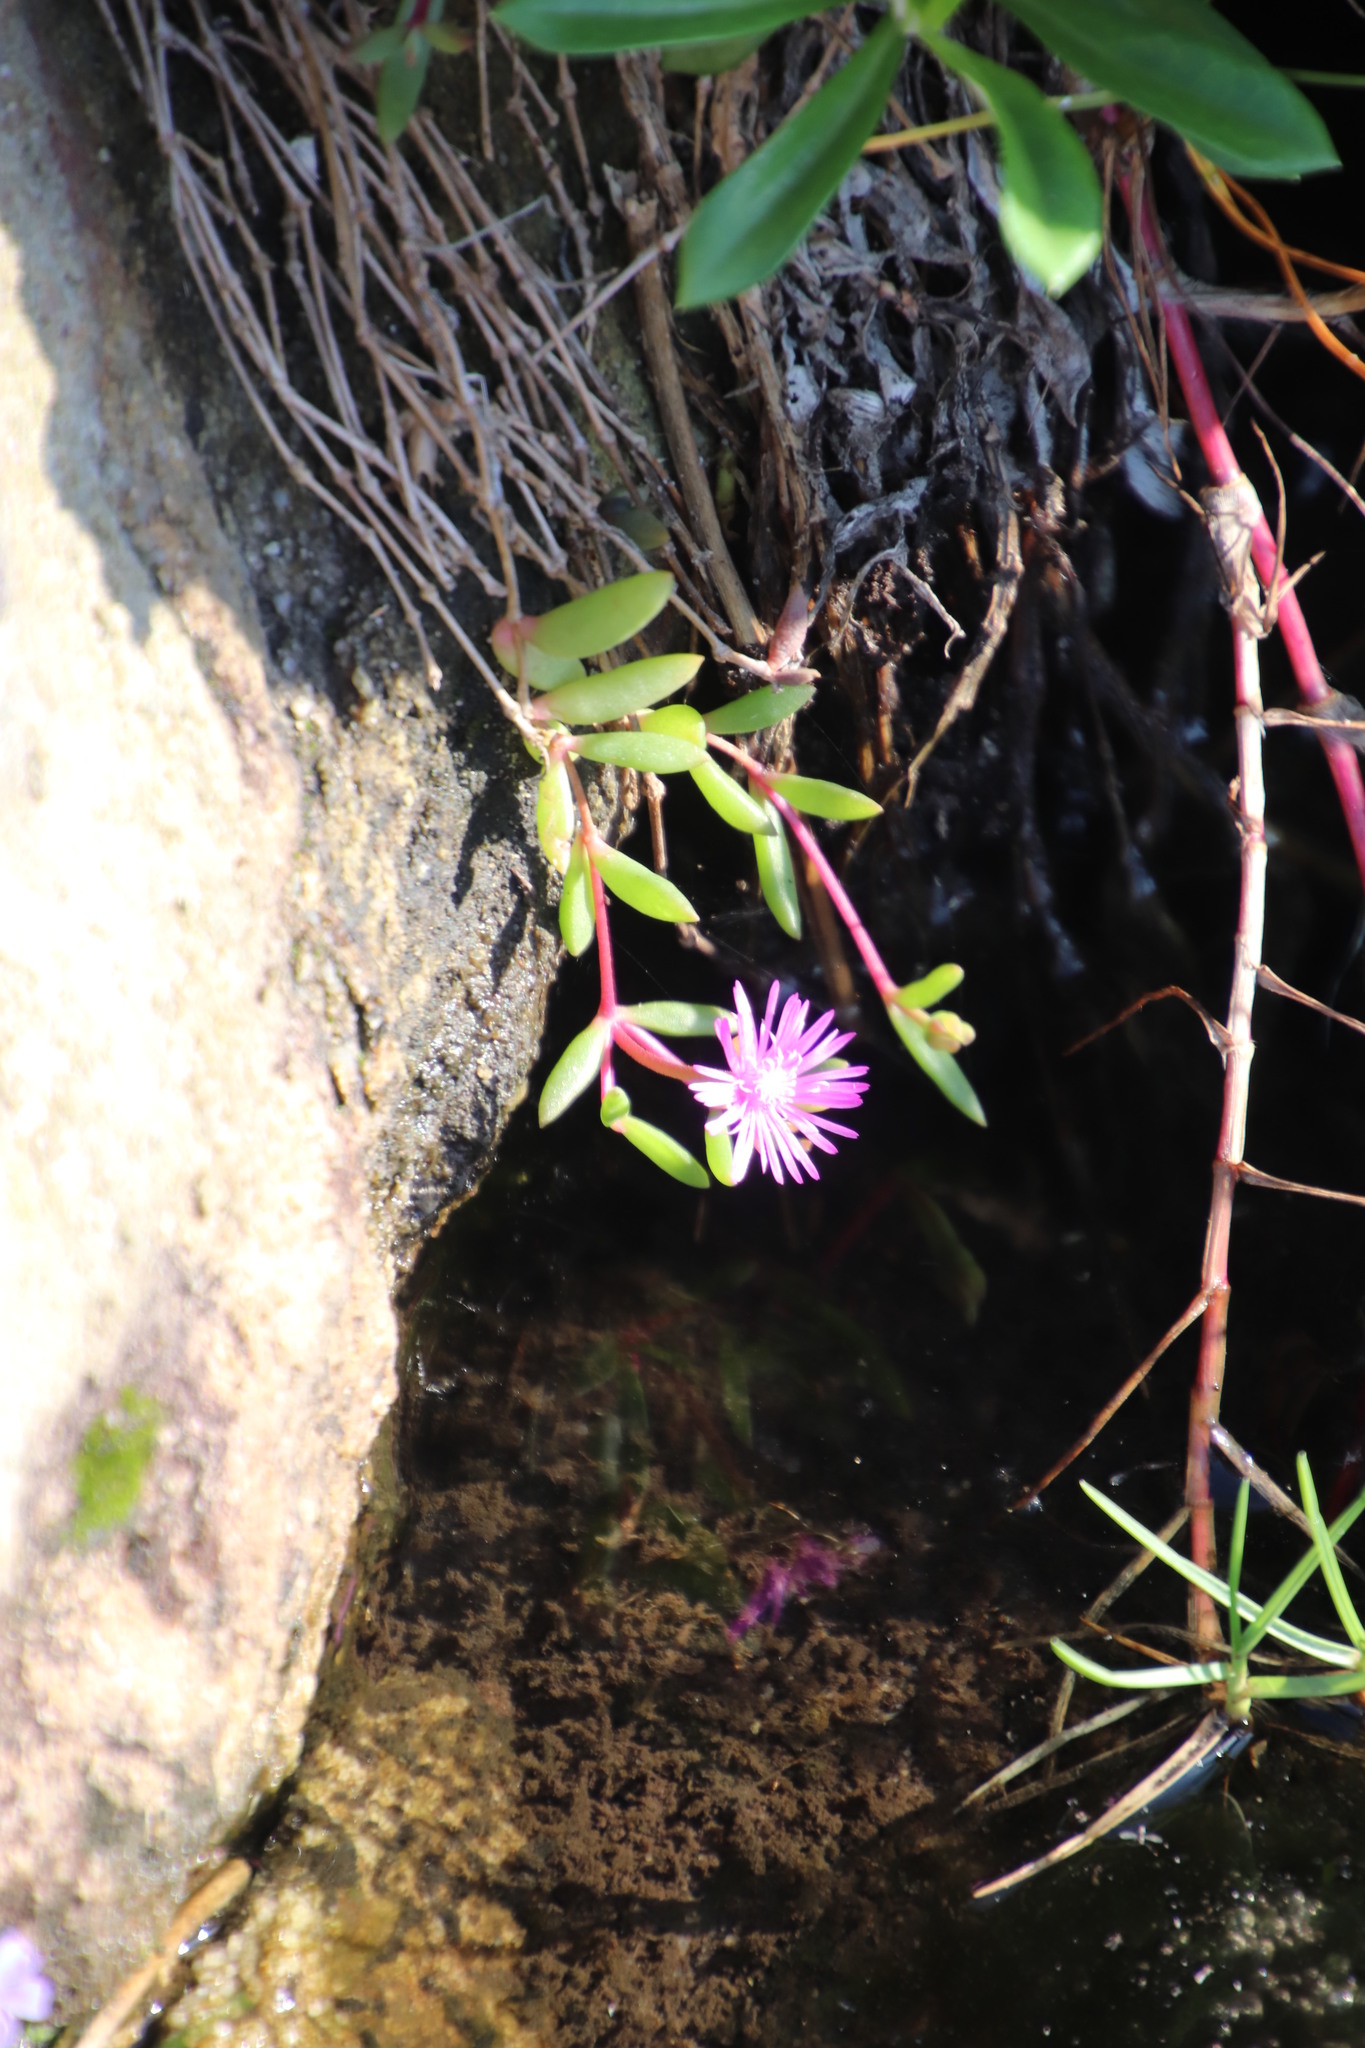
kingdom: Plantae
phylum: Tracheophyta
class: Magnoliopsida
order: Caryophyllales
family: Aizoaceae
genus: Delosperma
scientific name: Delosperma repens
